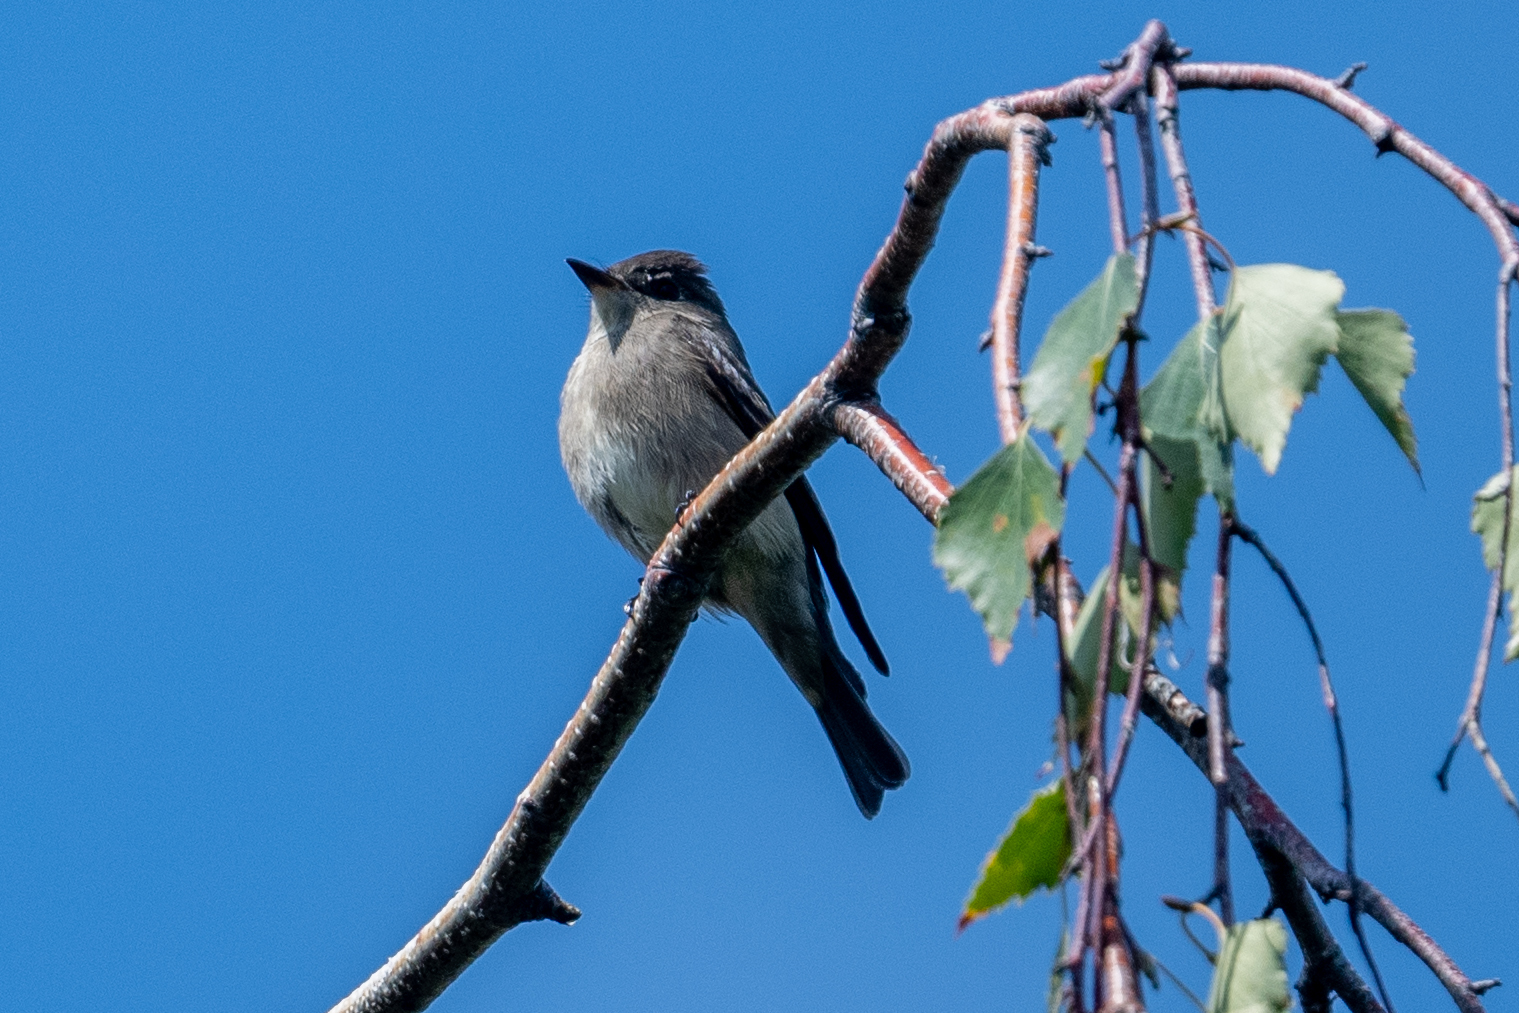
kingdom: Animalia
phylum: Chordata
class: Aves
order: Passeriformes
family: Tyrannidae
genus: Contopus
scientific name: Contopus sordidulus
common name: Western wood-pewee
